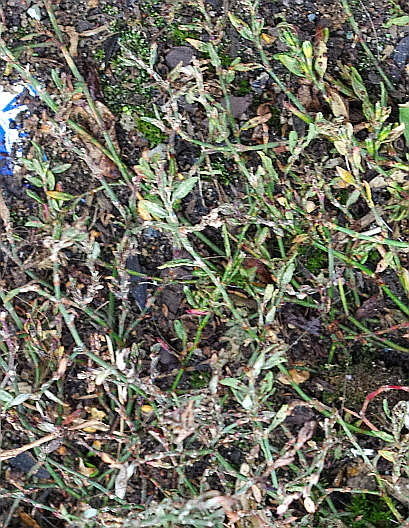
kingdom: Plantae
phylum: Tracheophyta
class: Magnoliopsida
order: Caryophyllales
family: Polygonaceae
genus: Polygonum
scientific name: Polygonum aviculare
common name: Prostrate knotweed
